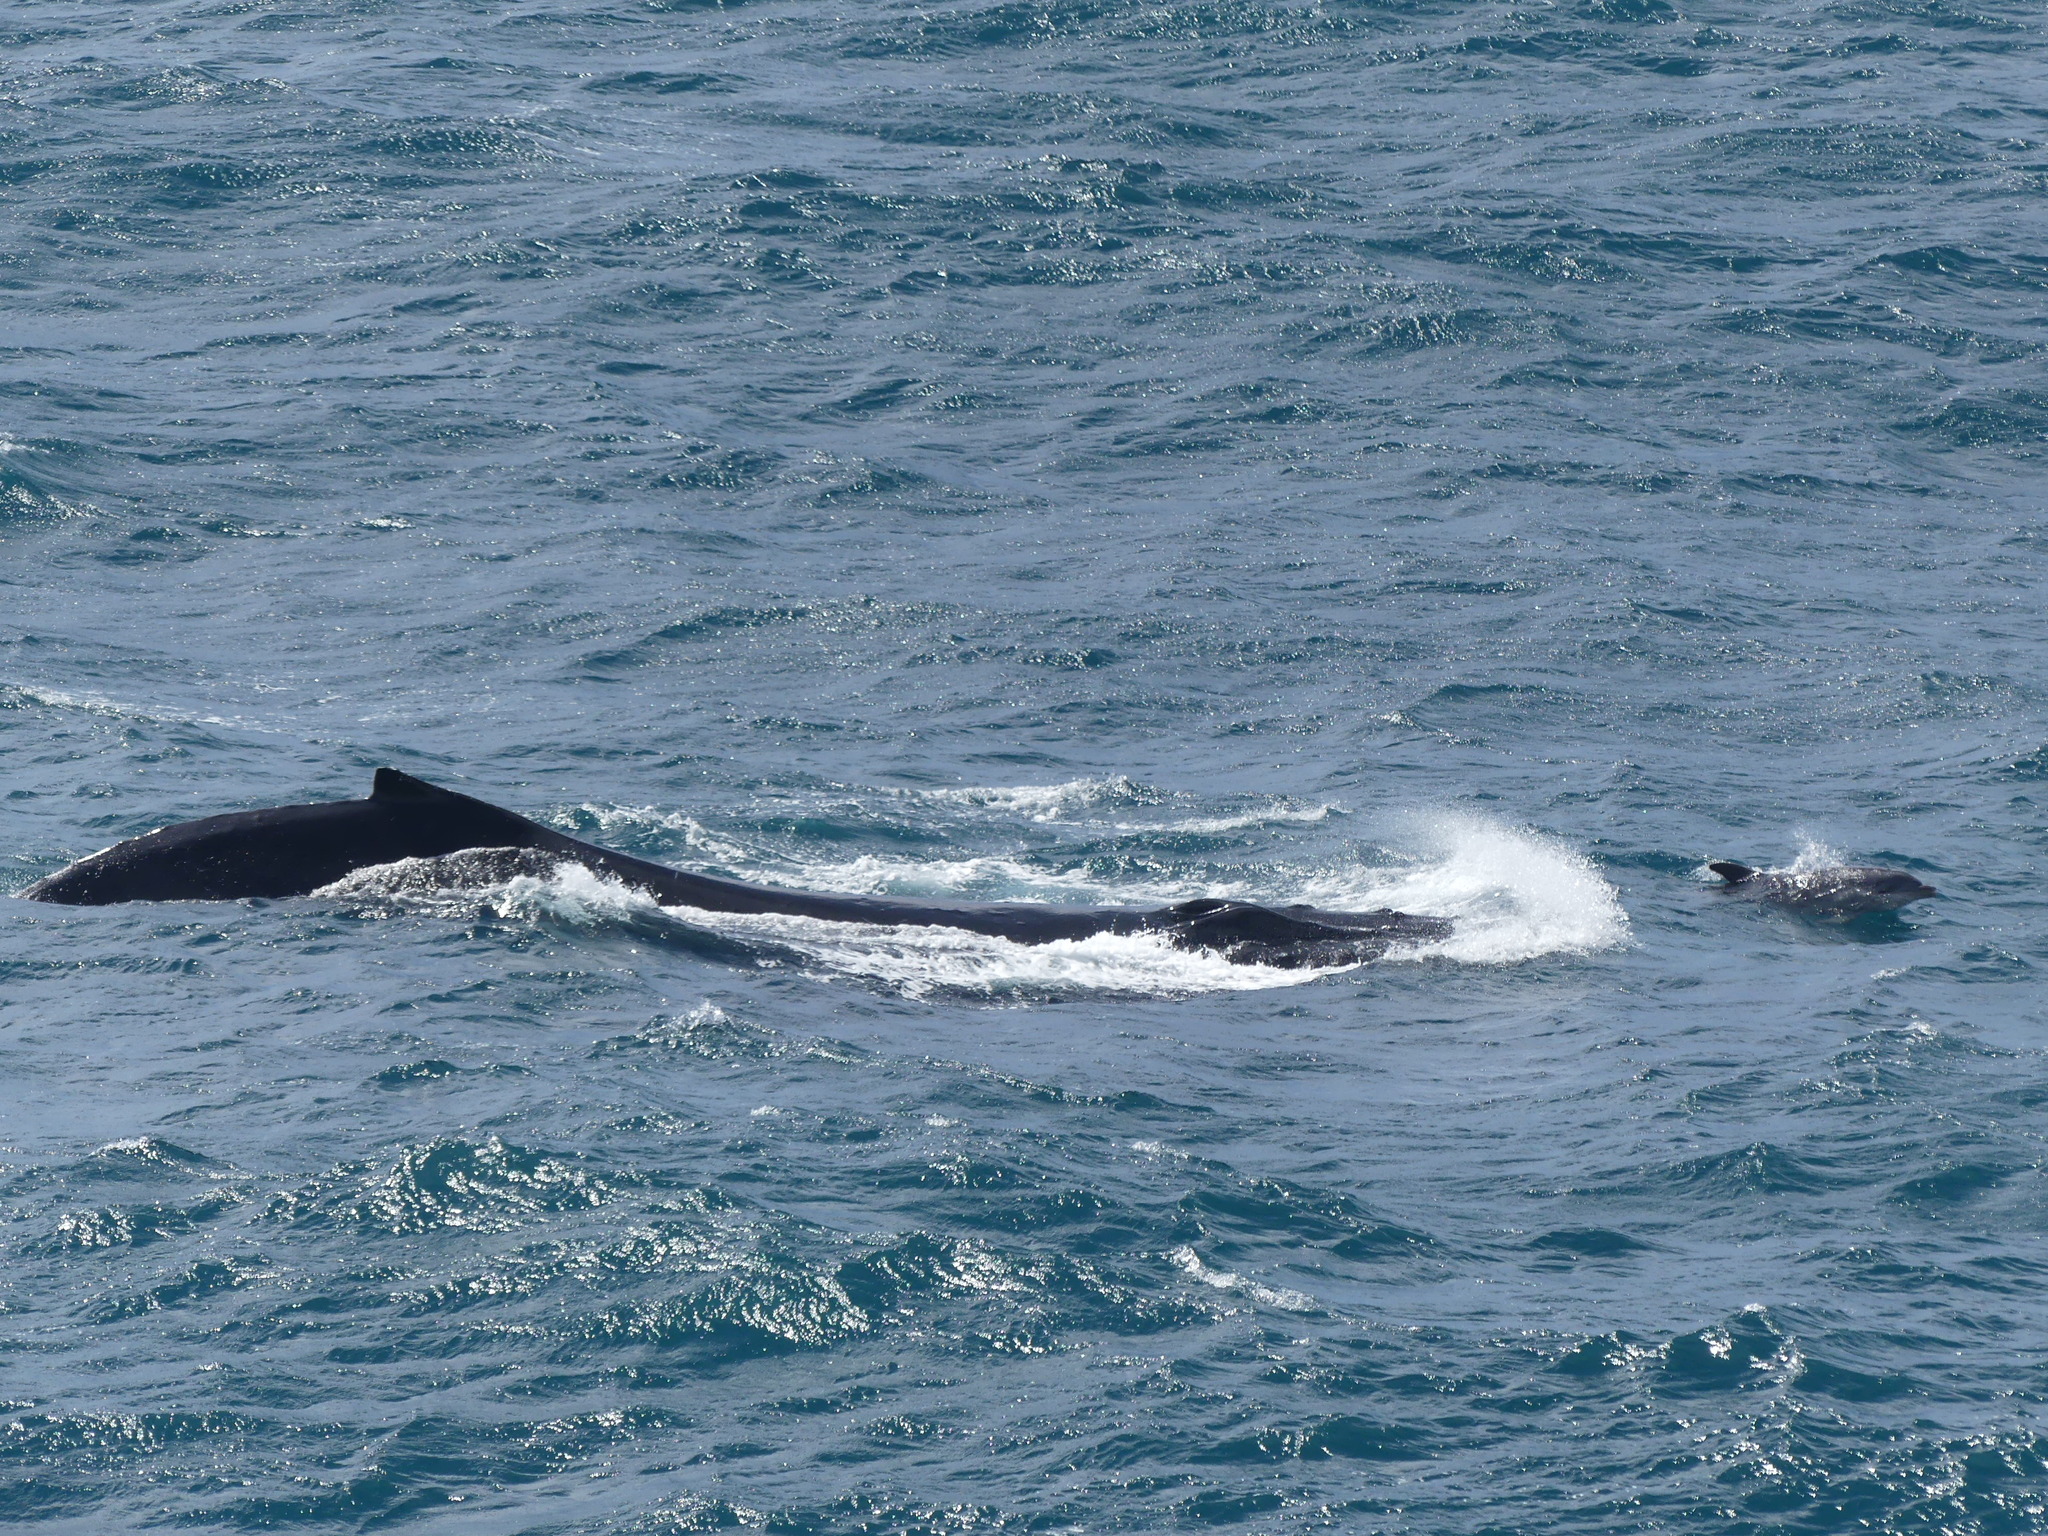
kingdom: Animalia
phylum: Chordata
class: Mammalia
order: Cetacea
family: Balaenopteridae
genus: Megaptera
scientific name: Megaptera novaeangliae
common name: Humpback whale
